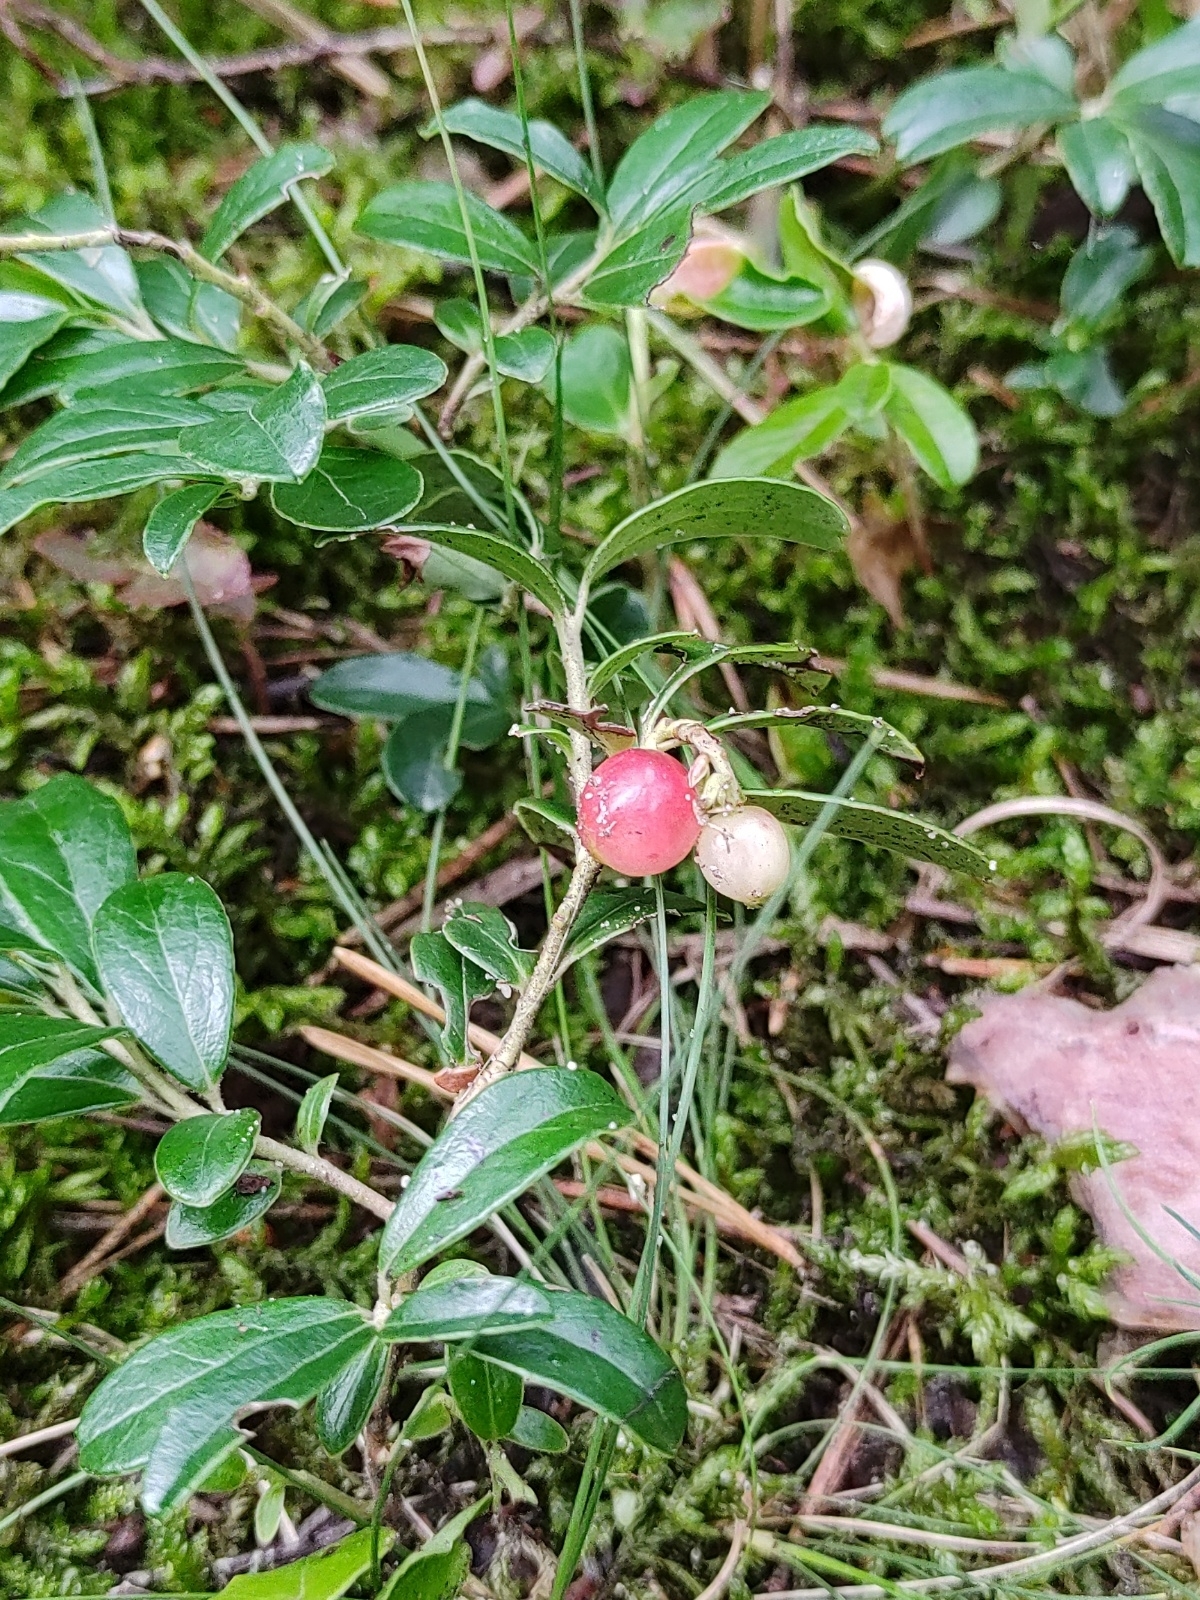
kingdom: Plantae
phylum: Tracheophyta
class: Magnoliopsida
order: Ericales
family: Ericaceae
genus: Vaccinium
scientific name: Vaccinium vitis-idaea
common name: Cowberry
